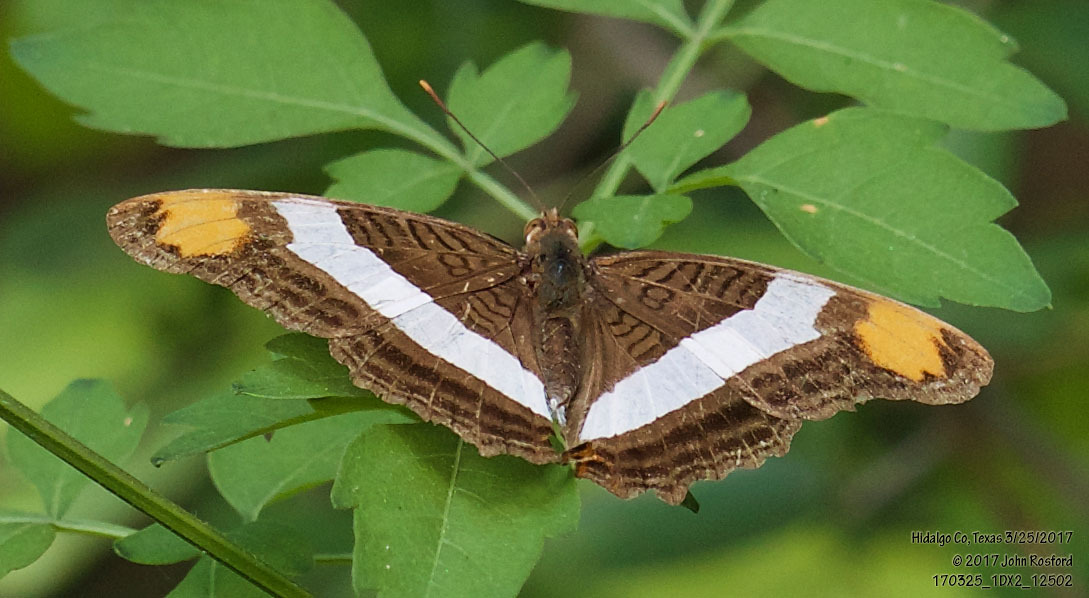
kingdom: Animalia
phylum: Arthropoda
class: Insecta
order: Lepidoptera
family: Nymphalidae
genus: Limenitis
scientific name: Limenitis fessonia
